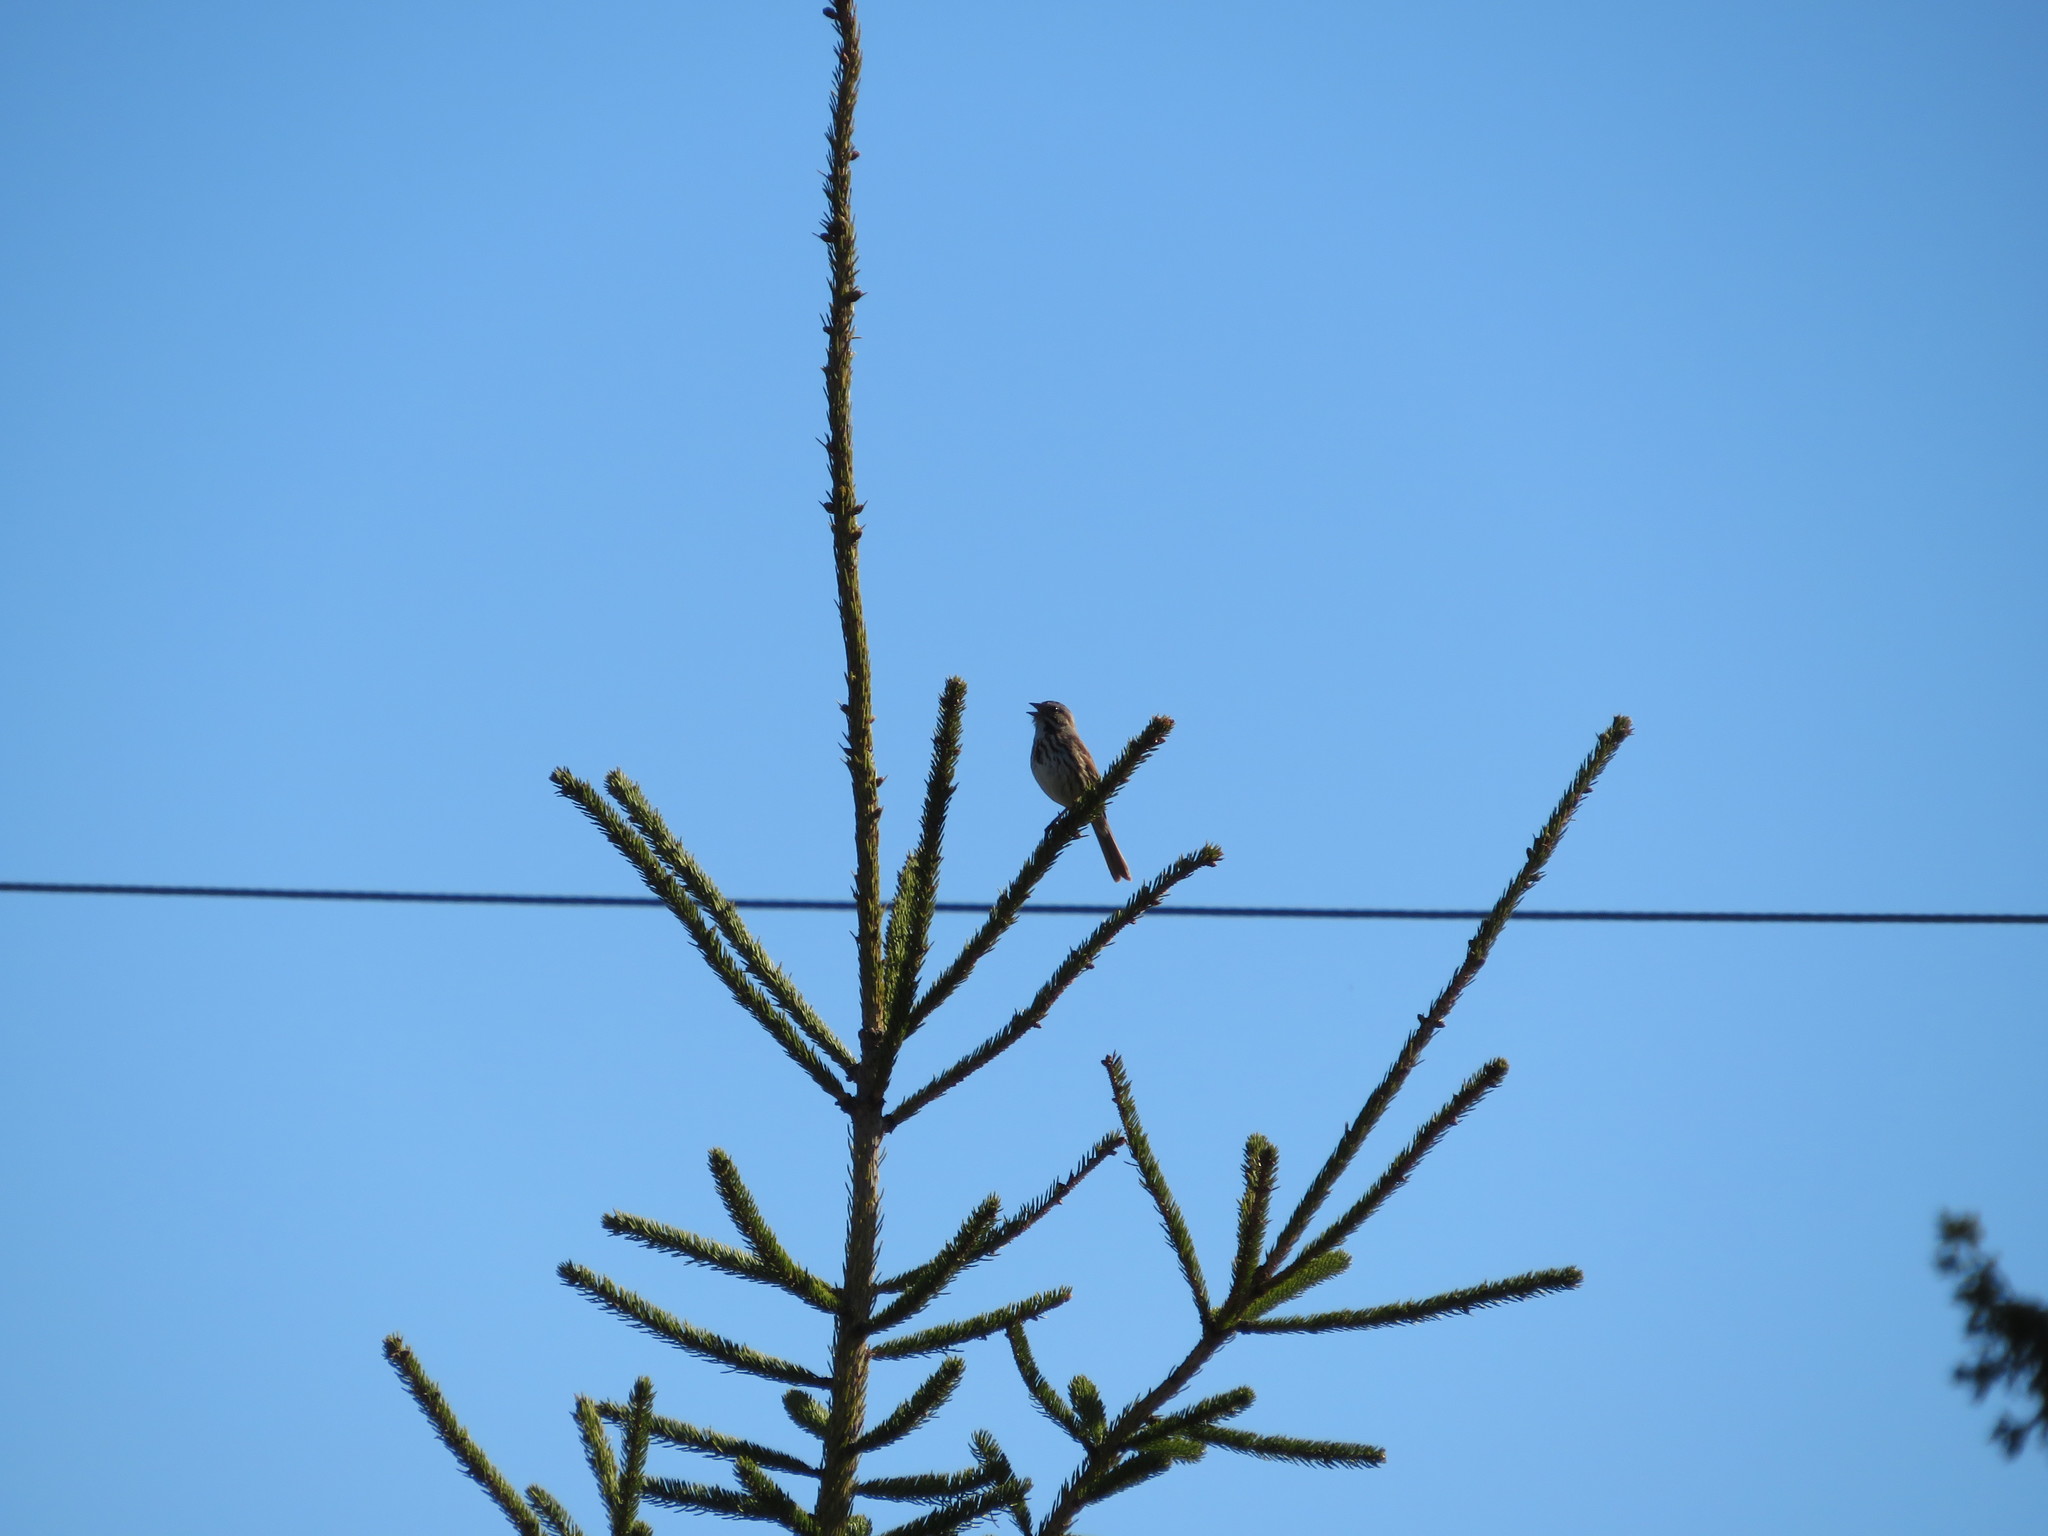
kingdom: Animalia
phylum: Chordata
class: Aves
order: Passeriformes
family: Passerellidae
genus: Melospiza
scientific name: Melospiza melodia
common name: Song sparrow
